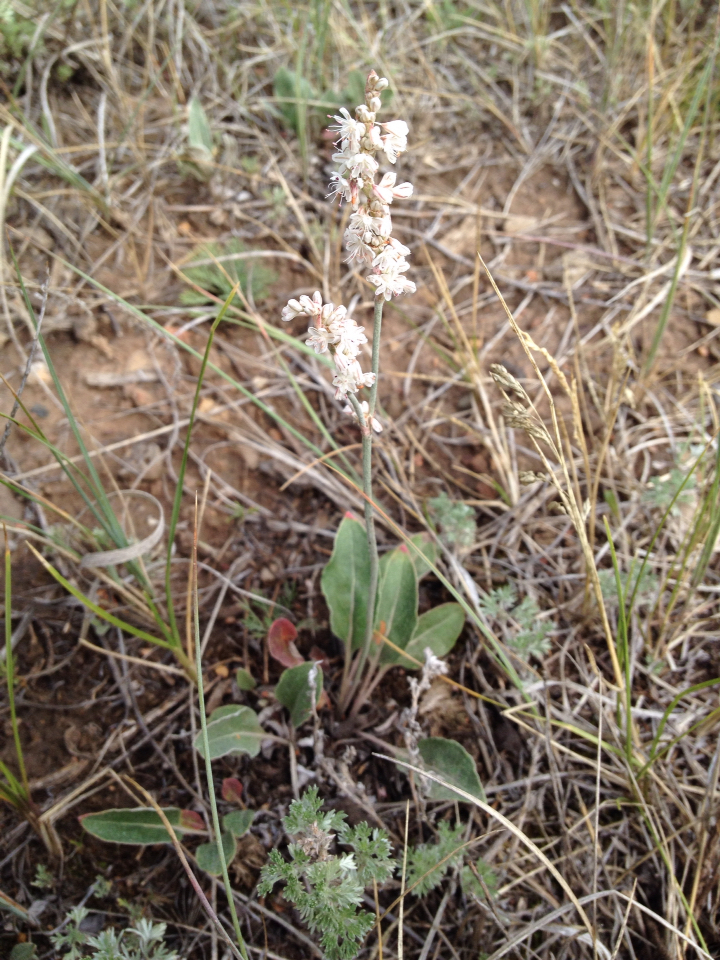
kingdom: Plantae
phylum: Tracheophyta
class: Magnoliopsida
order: Caryophyllales
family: Polygonaceae
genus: Eriogonum
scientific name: Eriogonum racemosum
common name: Redroot wild buckwheat
